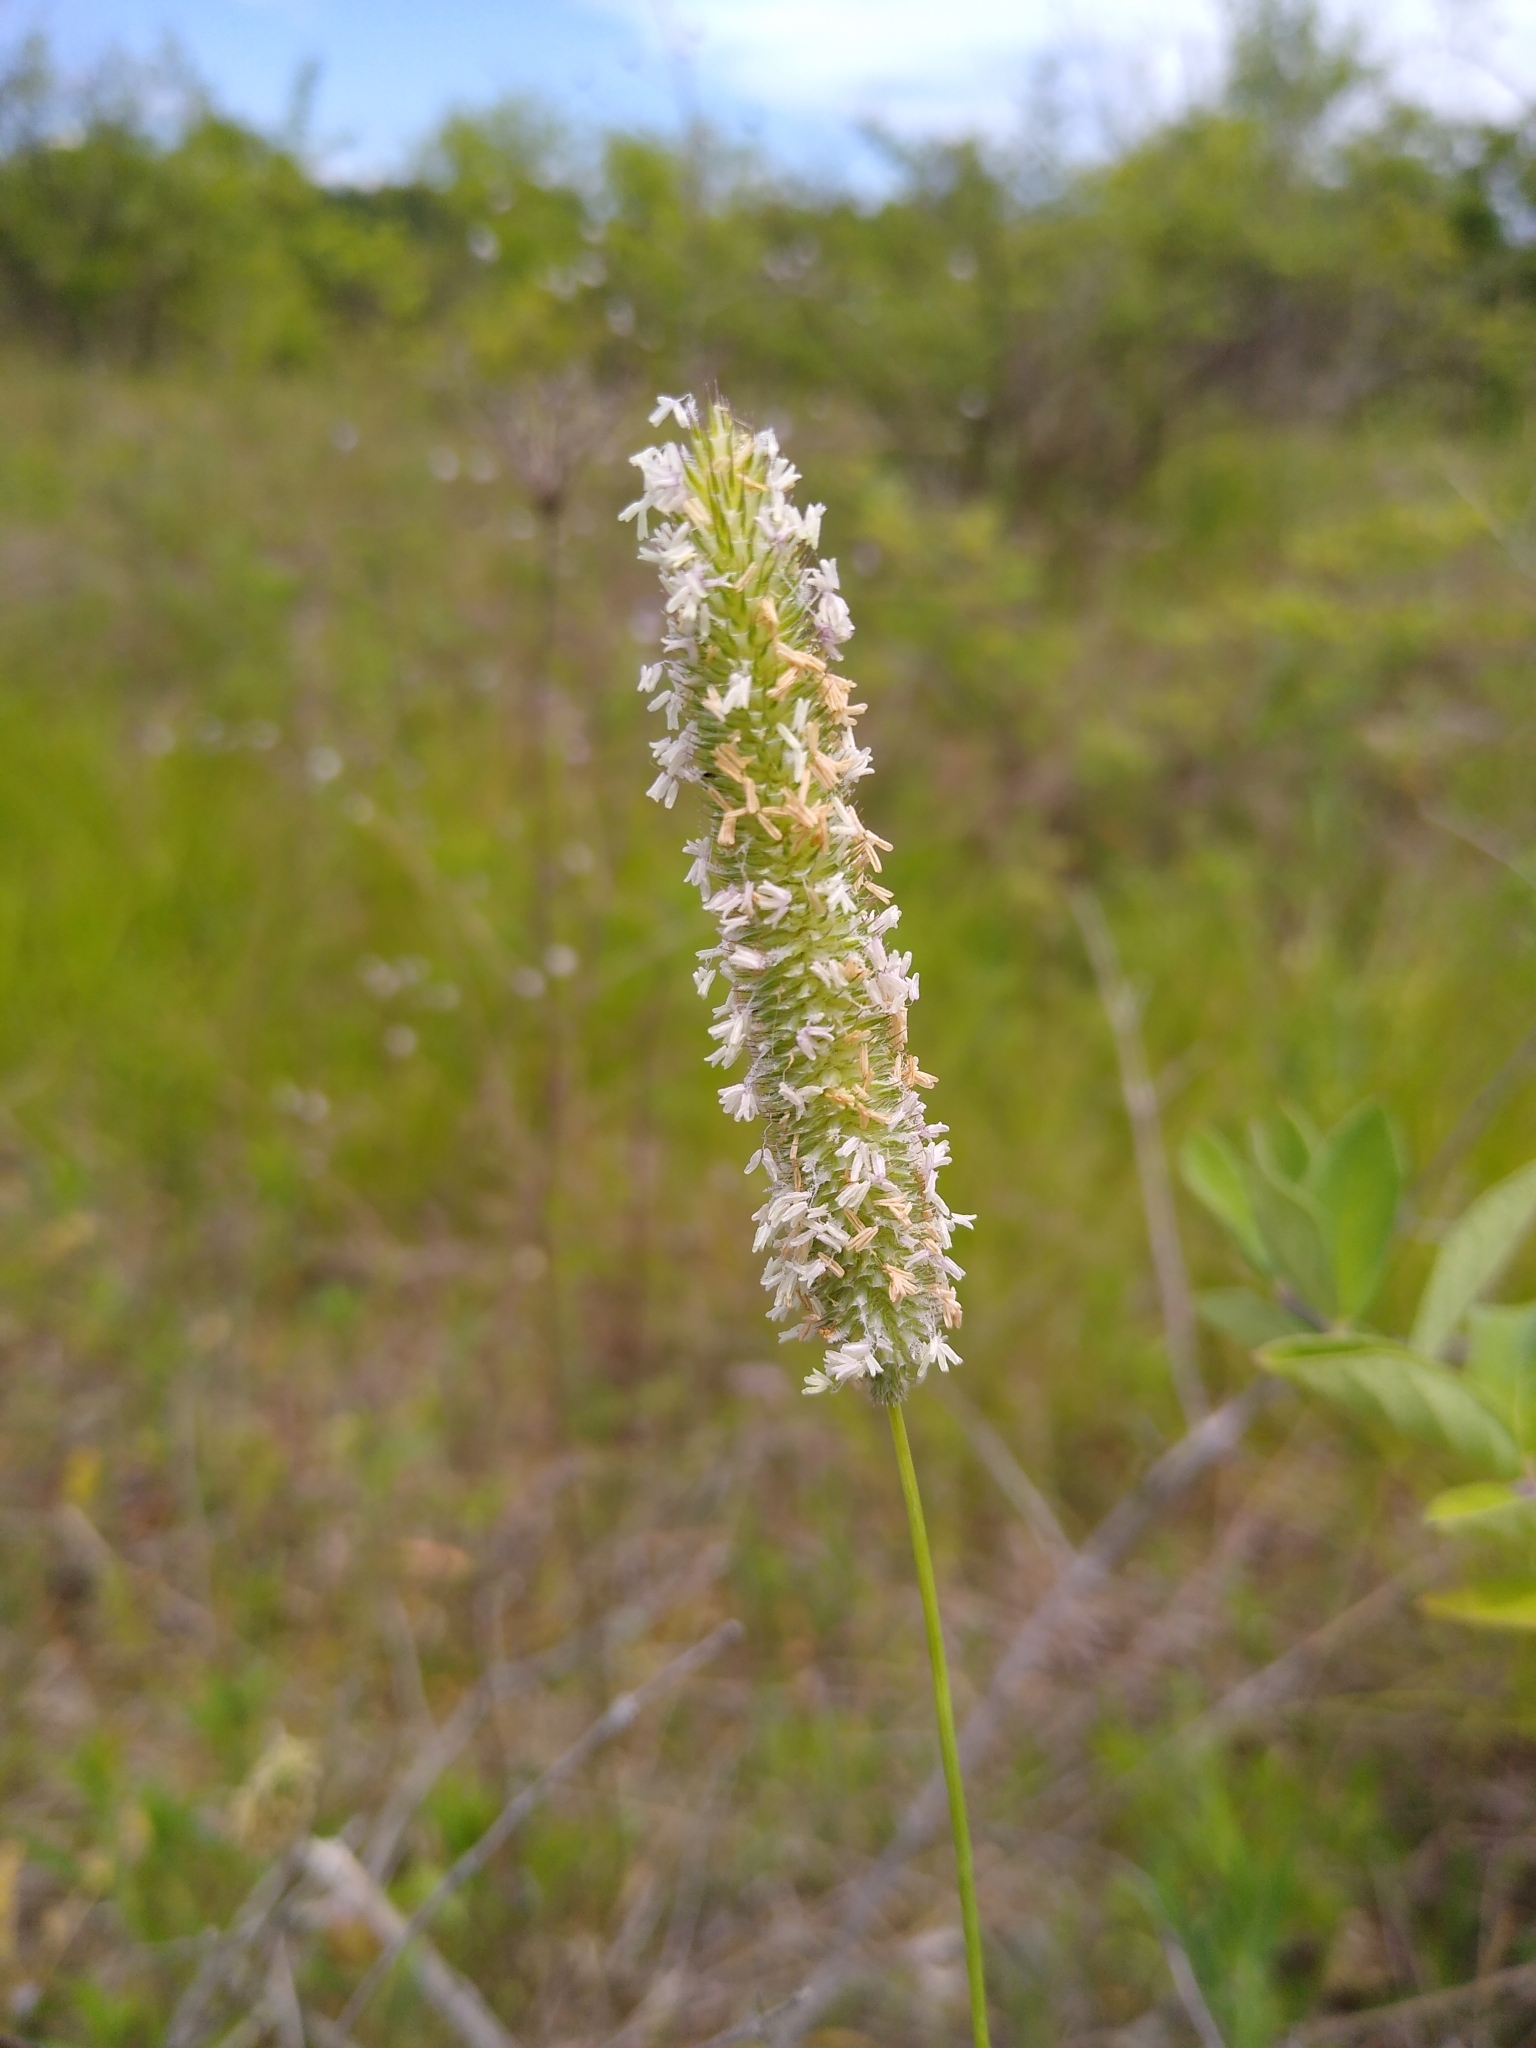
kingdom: Plantae
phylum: Tracheophyta
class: Liliopsida
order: Poales
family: Poaceae
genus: Phleum
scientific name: Phleum pratense
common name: Timothy grass
